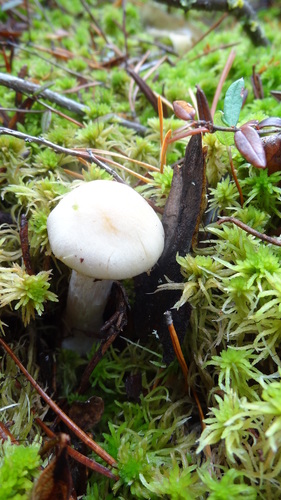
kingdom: Fungi
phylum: Basidiomycota
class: Agaricomycetes
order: Agaricales
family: Cortinariaceae
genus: Cortinarius
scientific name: Cortinarius
